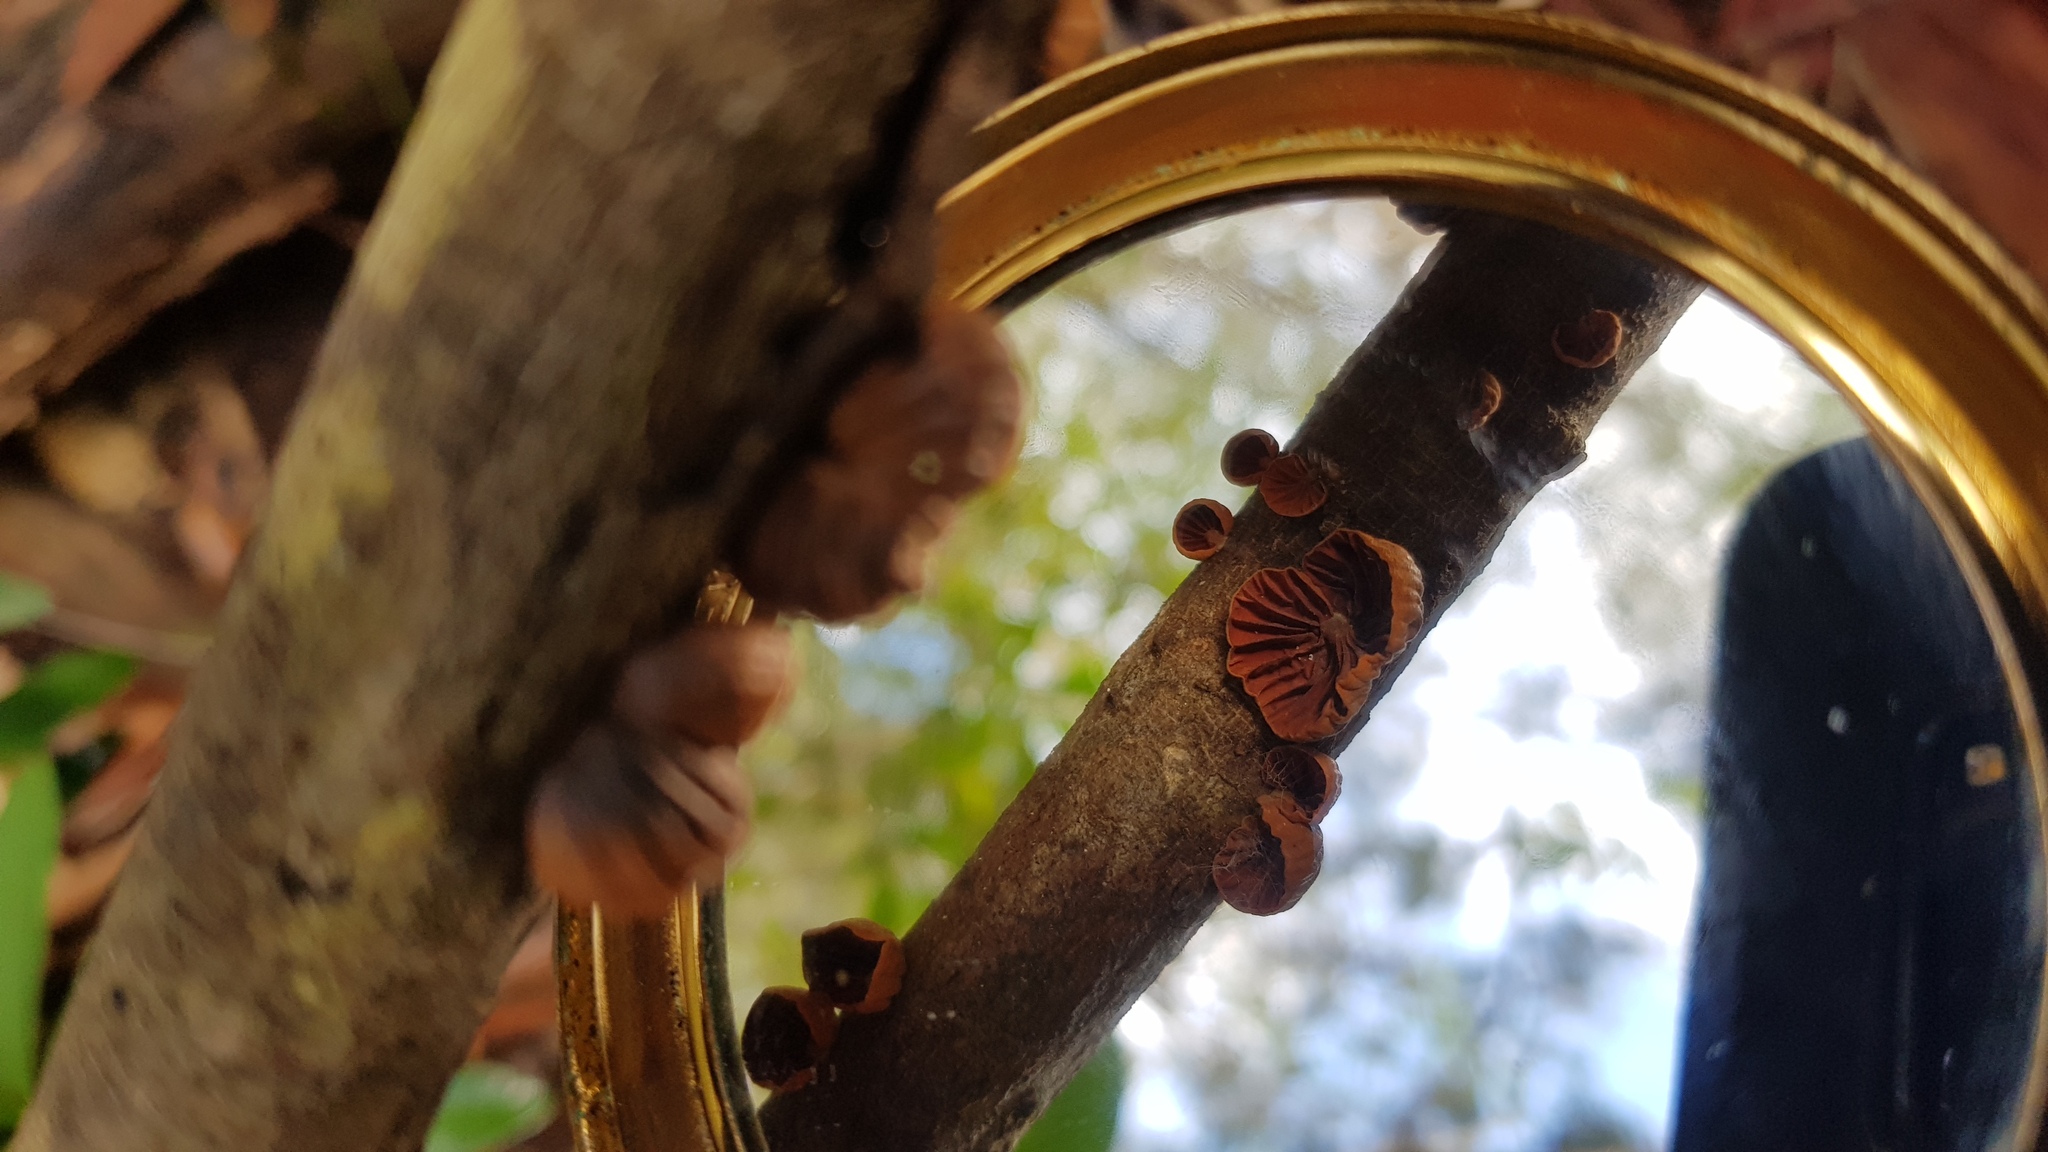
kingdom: Fungi
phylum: Basidiomycota
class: Agaricomycetes
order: Agaricales
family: Omphalotaceae
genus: Anthracophyllum
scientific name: Anthracophyllum archeri
